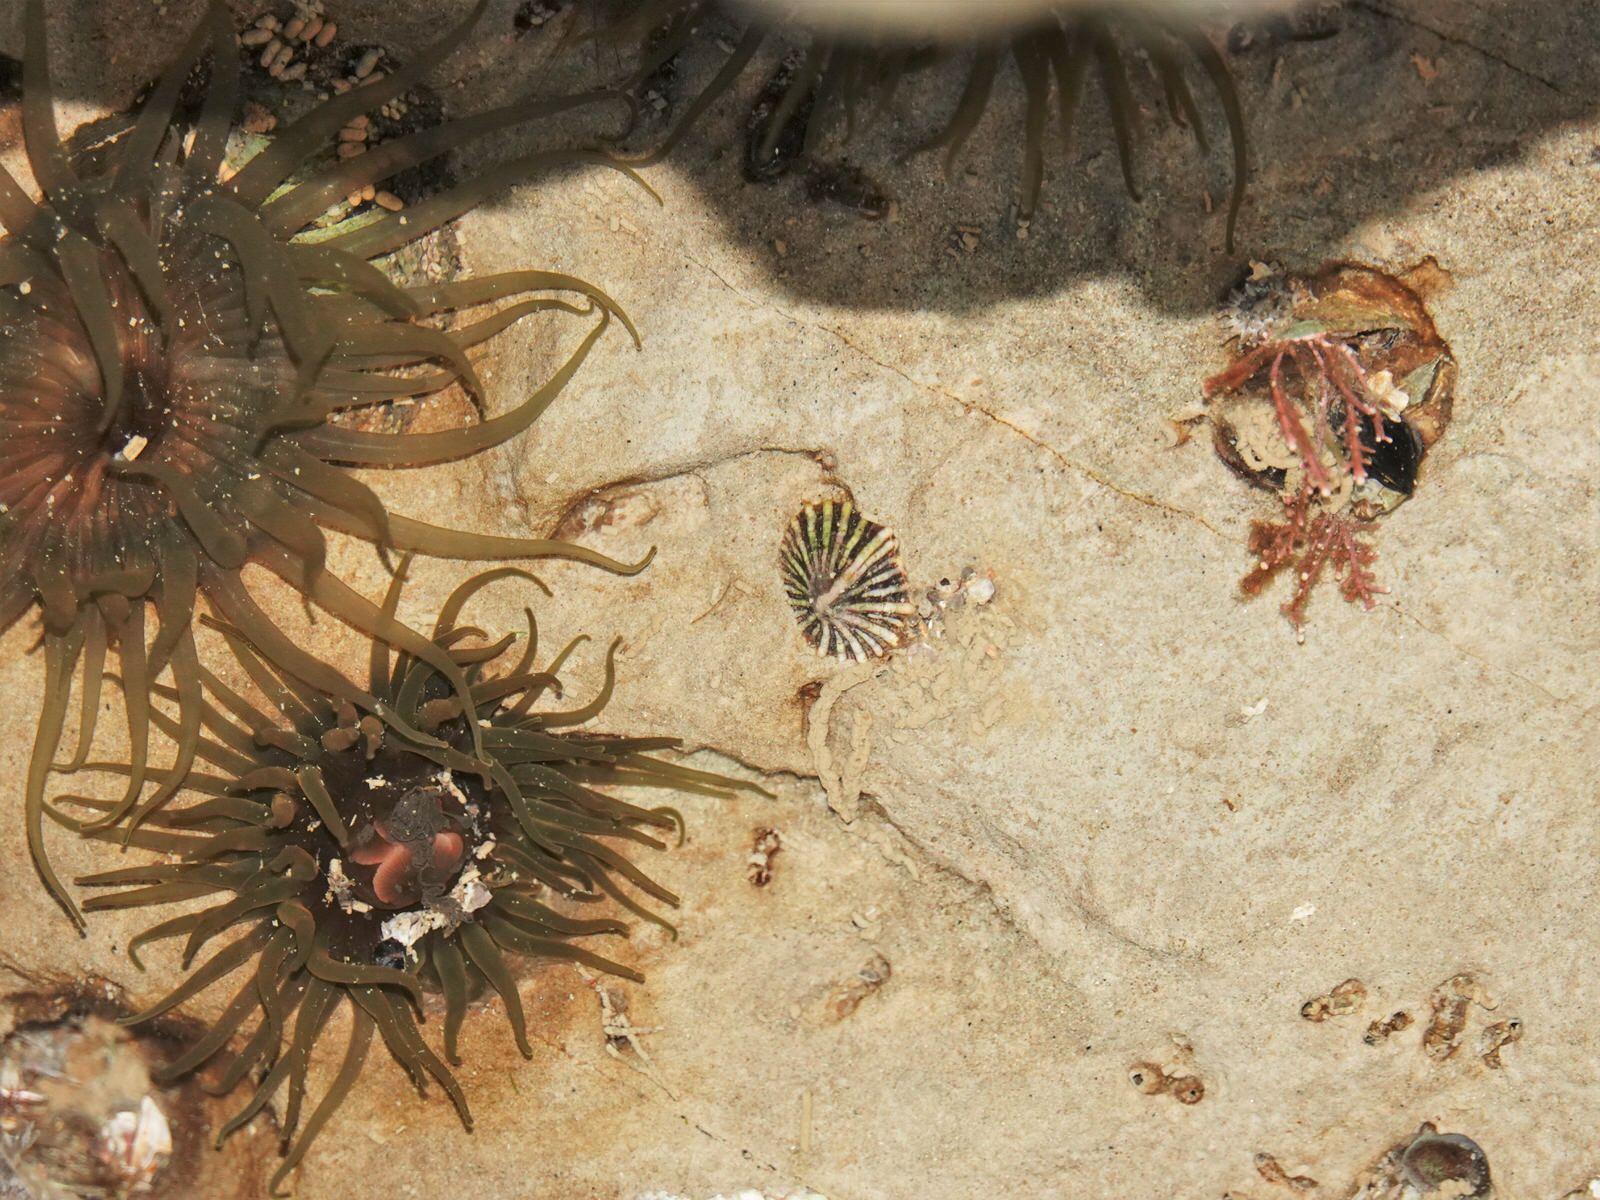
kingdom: Animalia
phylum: Mollusca
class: Gastropoda
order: Siphonariida
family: Siphonariidae
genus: Siphonaria
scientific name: Siphonaria australis
